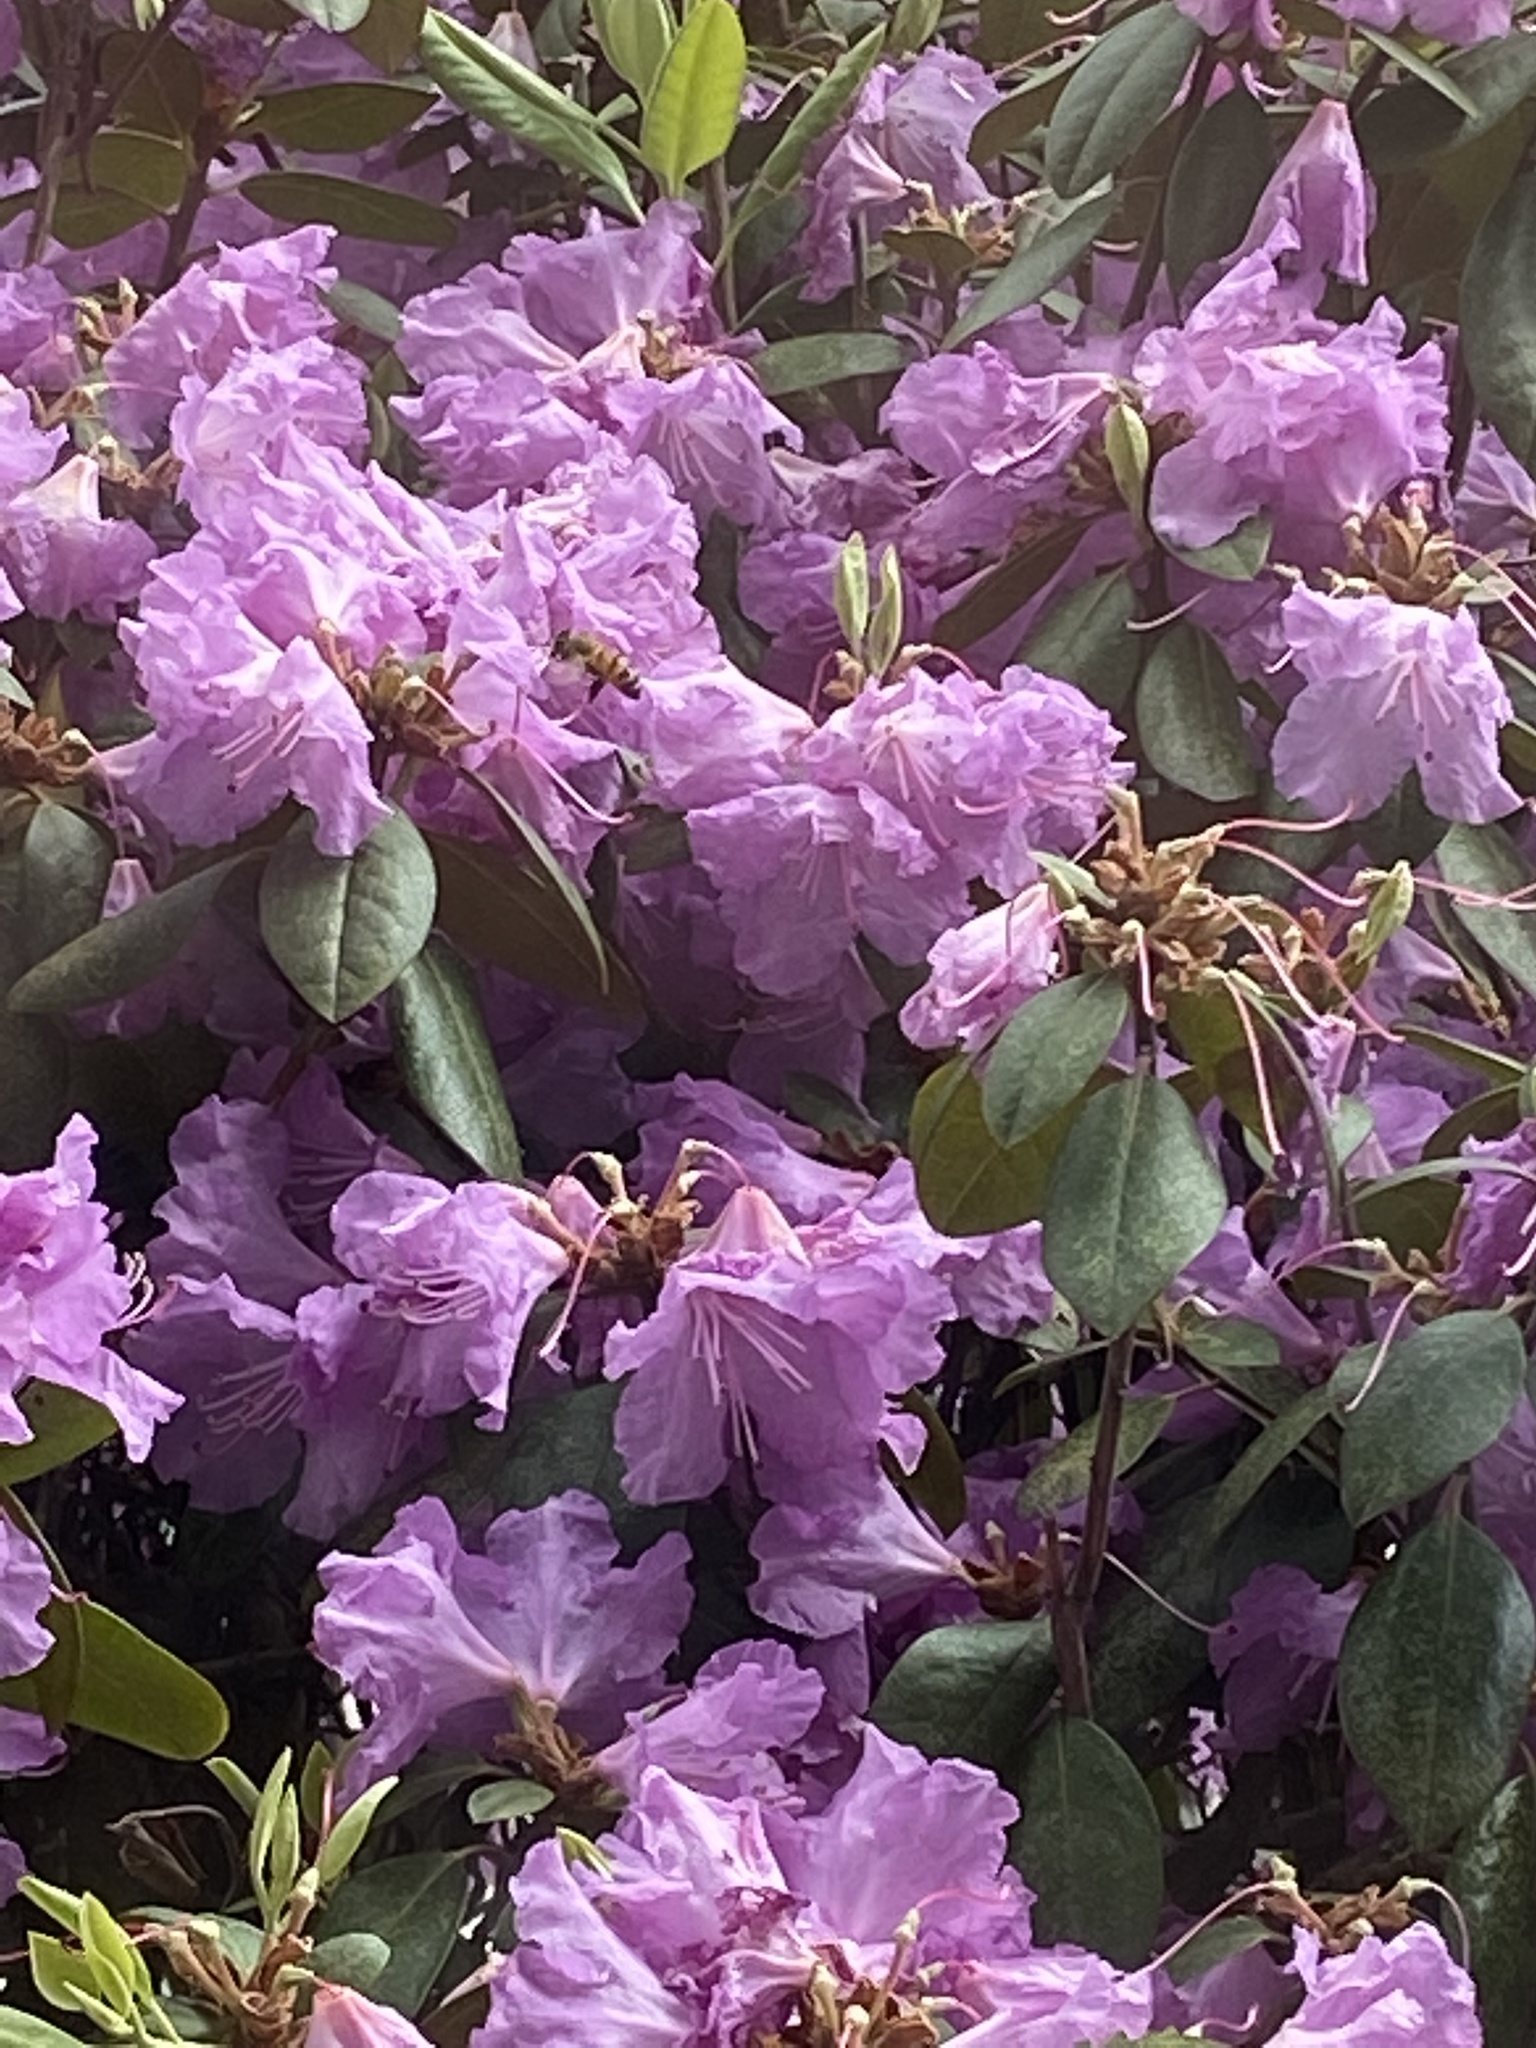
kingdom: Animalia
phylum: Arthropoda
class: Insecta
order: Hymenoptera
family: Apidae
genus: Apis
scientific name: Apis mellifera
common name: Honey bee
